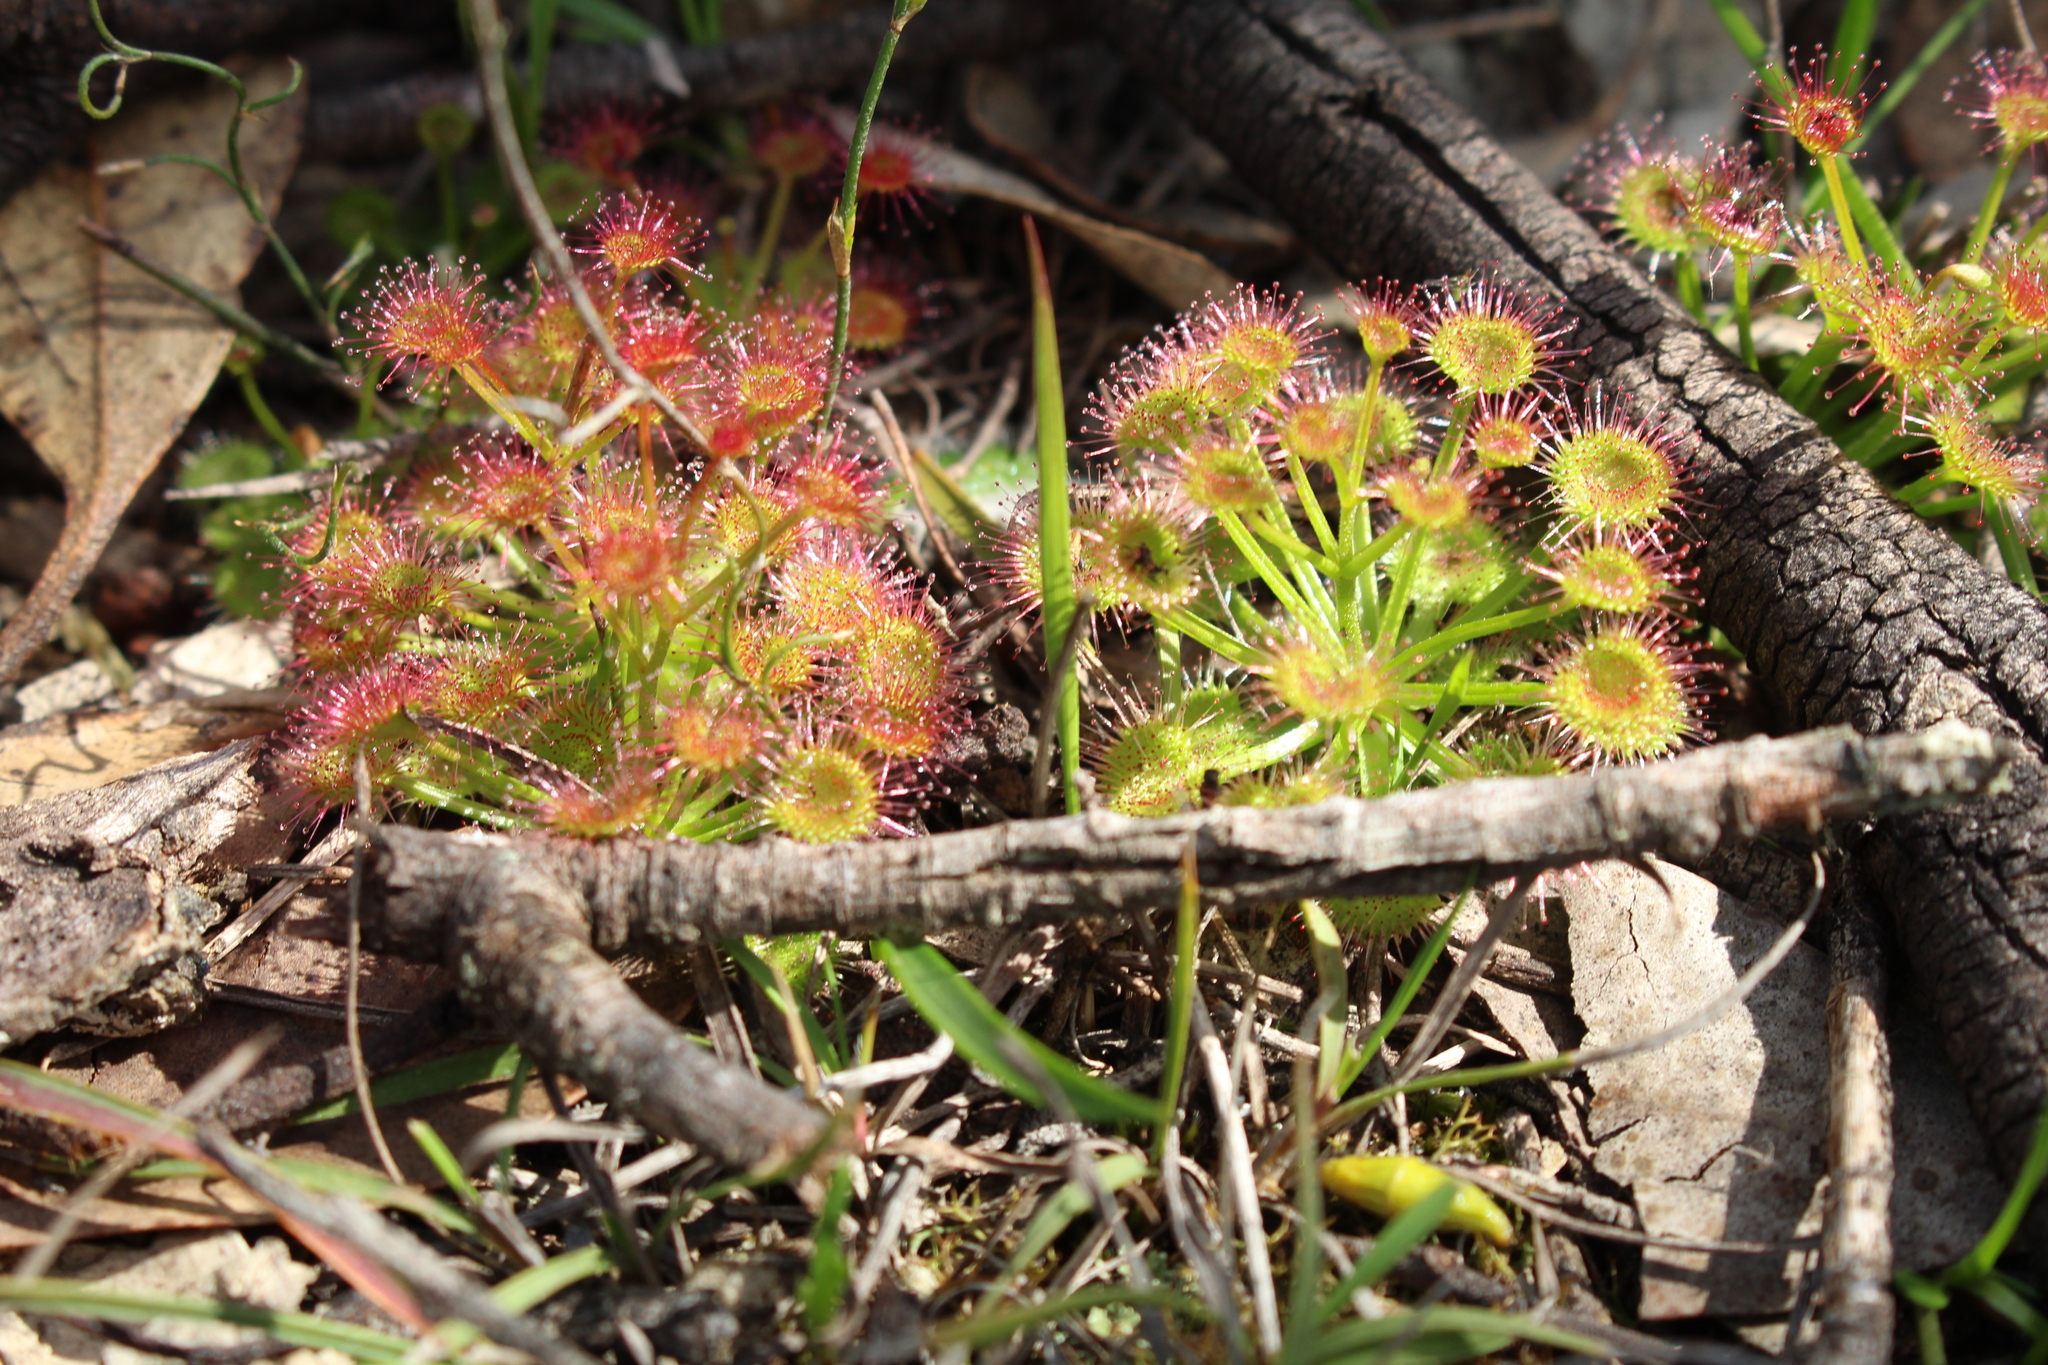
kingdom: Plantae
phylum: Tracheophyta
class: Magnoliopsida
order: Caryophyllales
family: Droseraceae
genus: Drosera
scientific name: Drosera stolonifera
